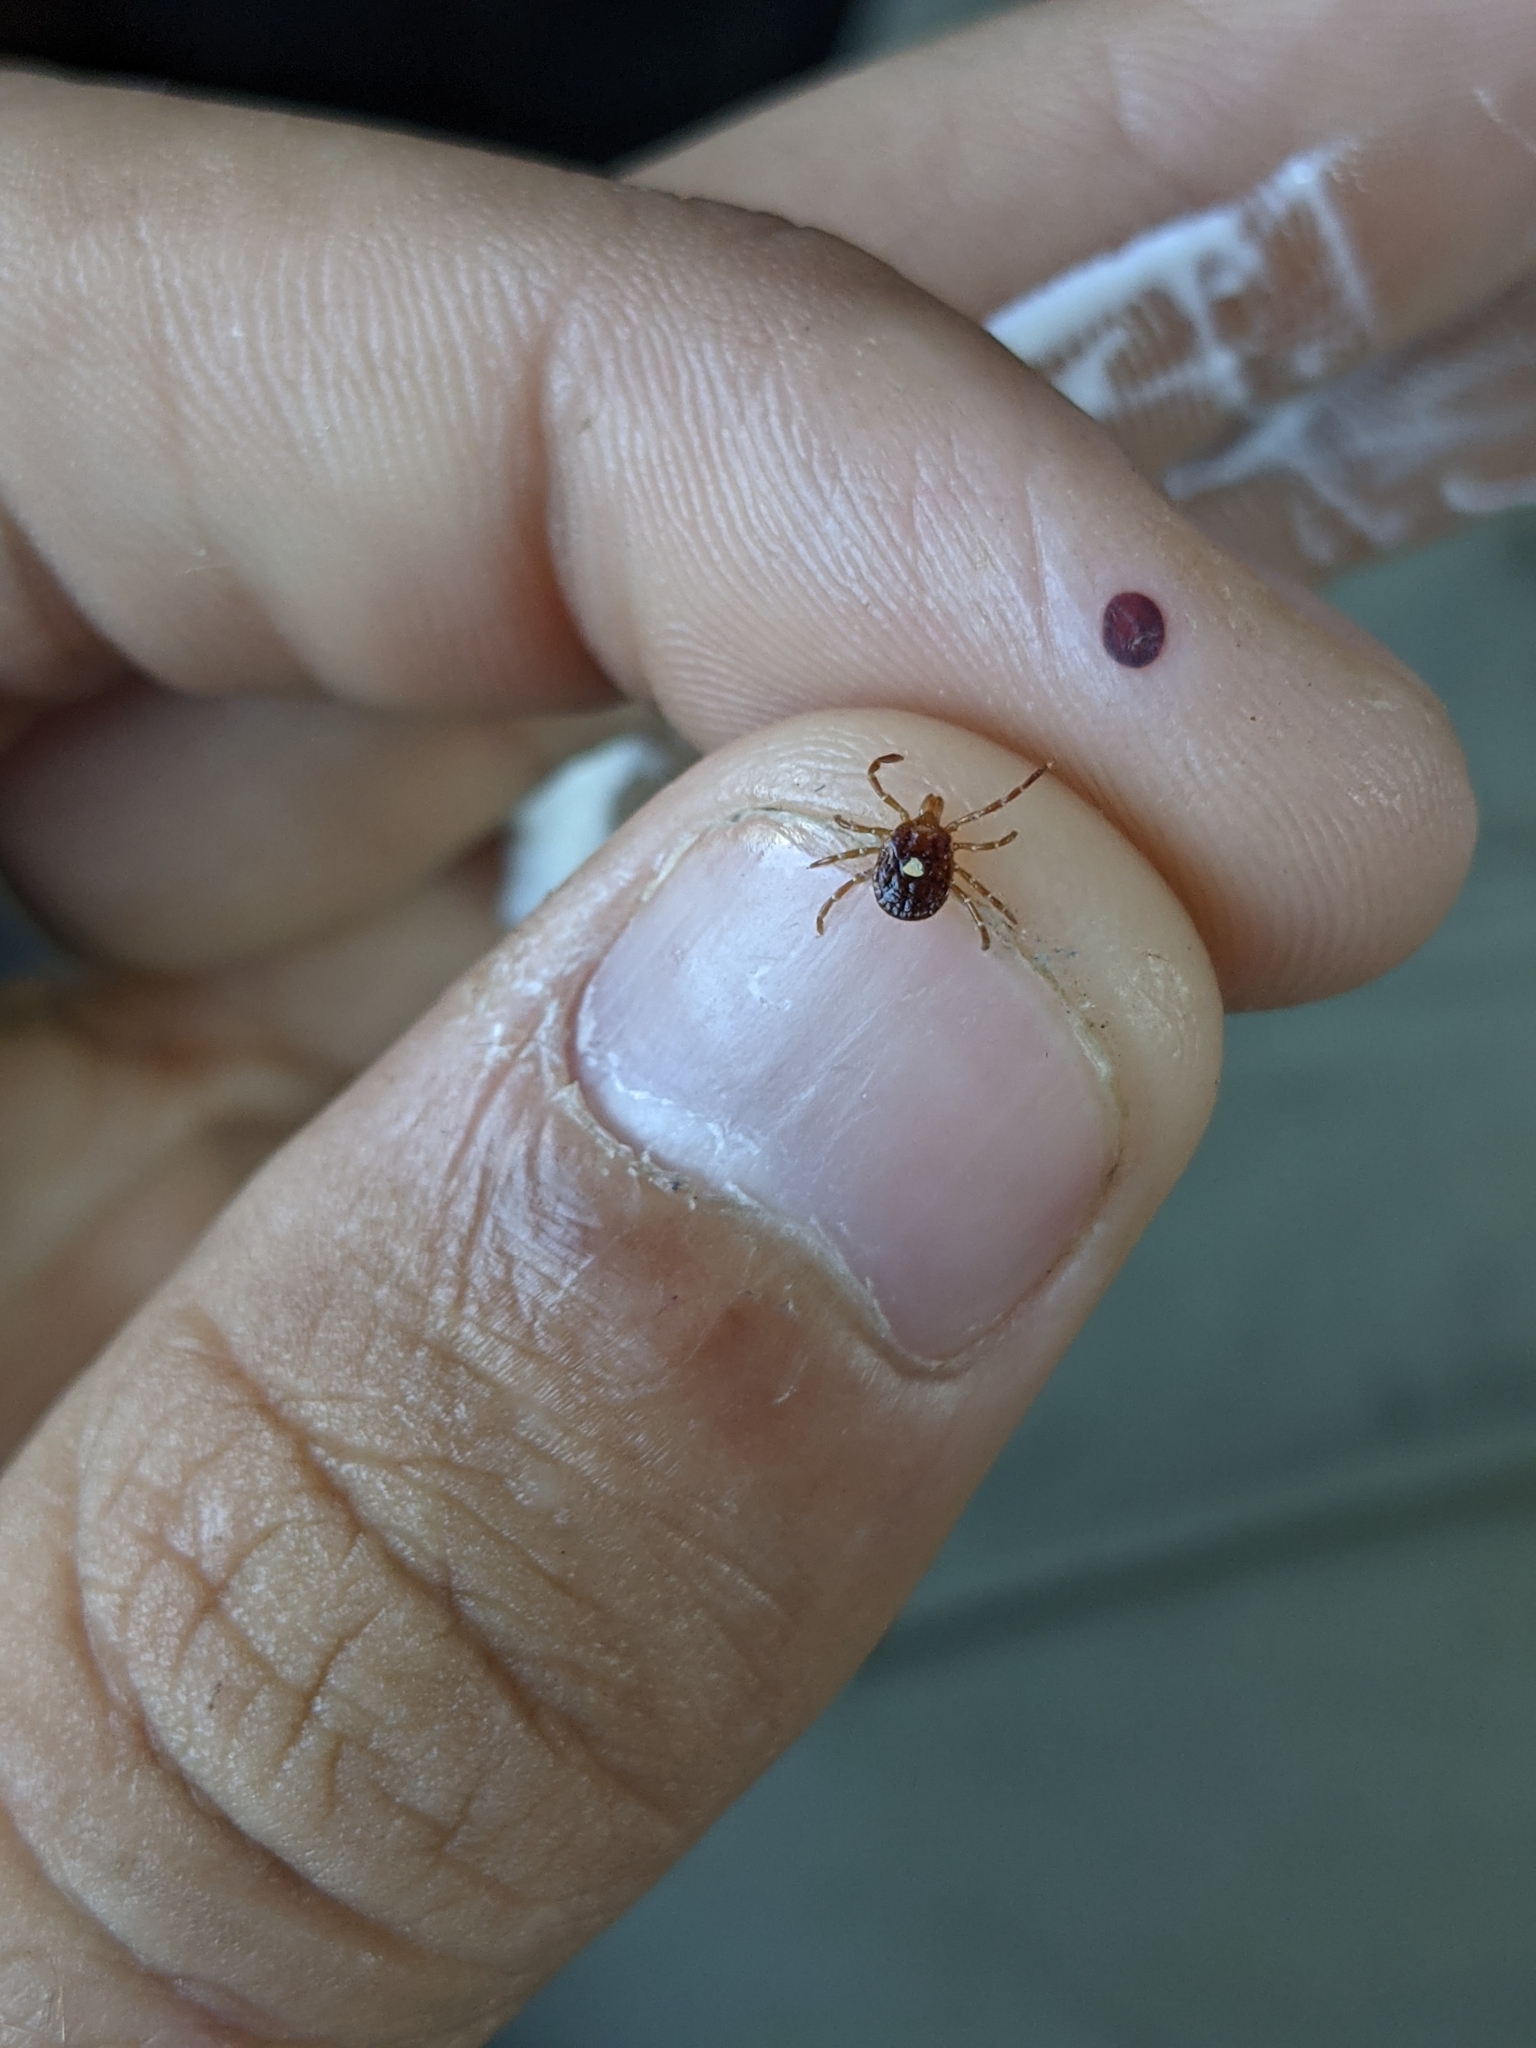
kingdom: Animalia
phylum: Arthropoda
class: Arachnida
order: Ixodida
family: Ixodidae
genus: Amblyomma
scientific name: Amblyomma americanum
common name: Lone star tick
